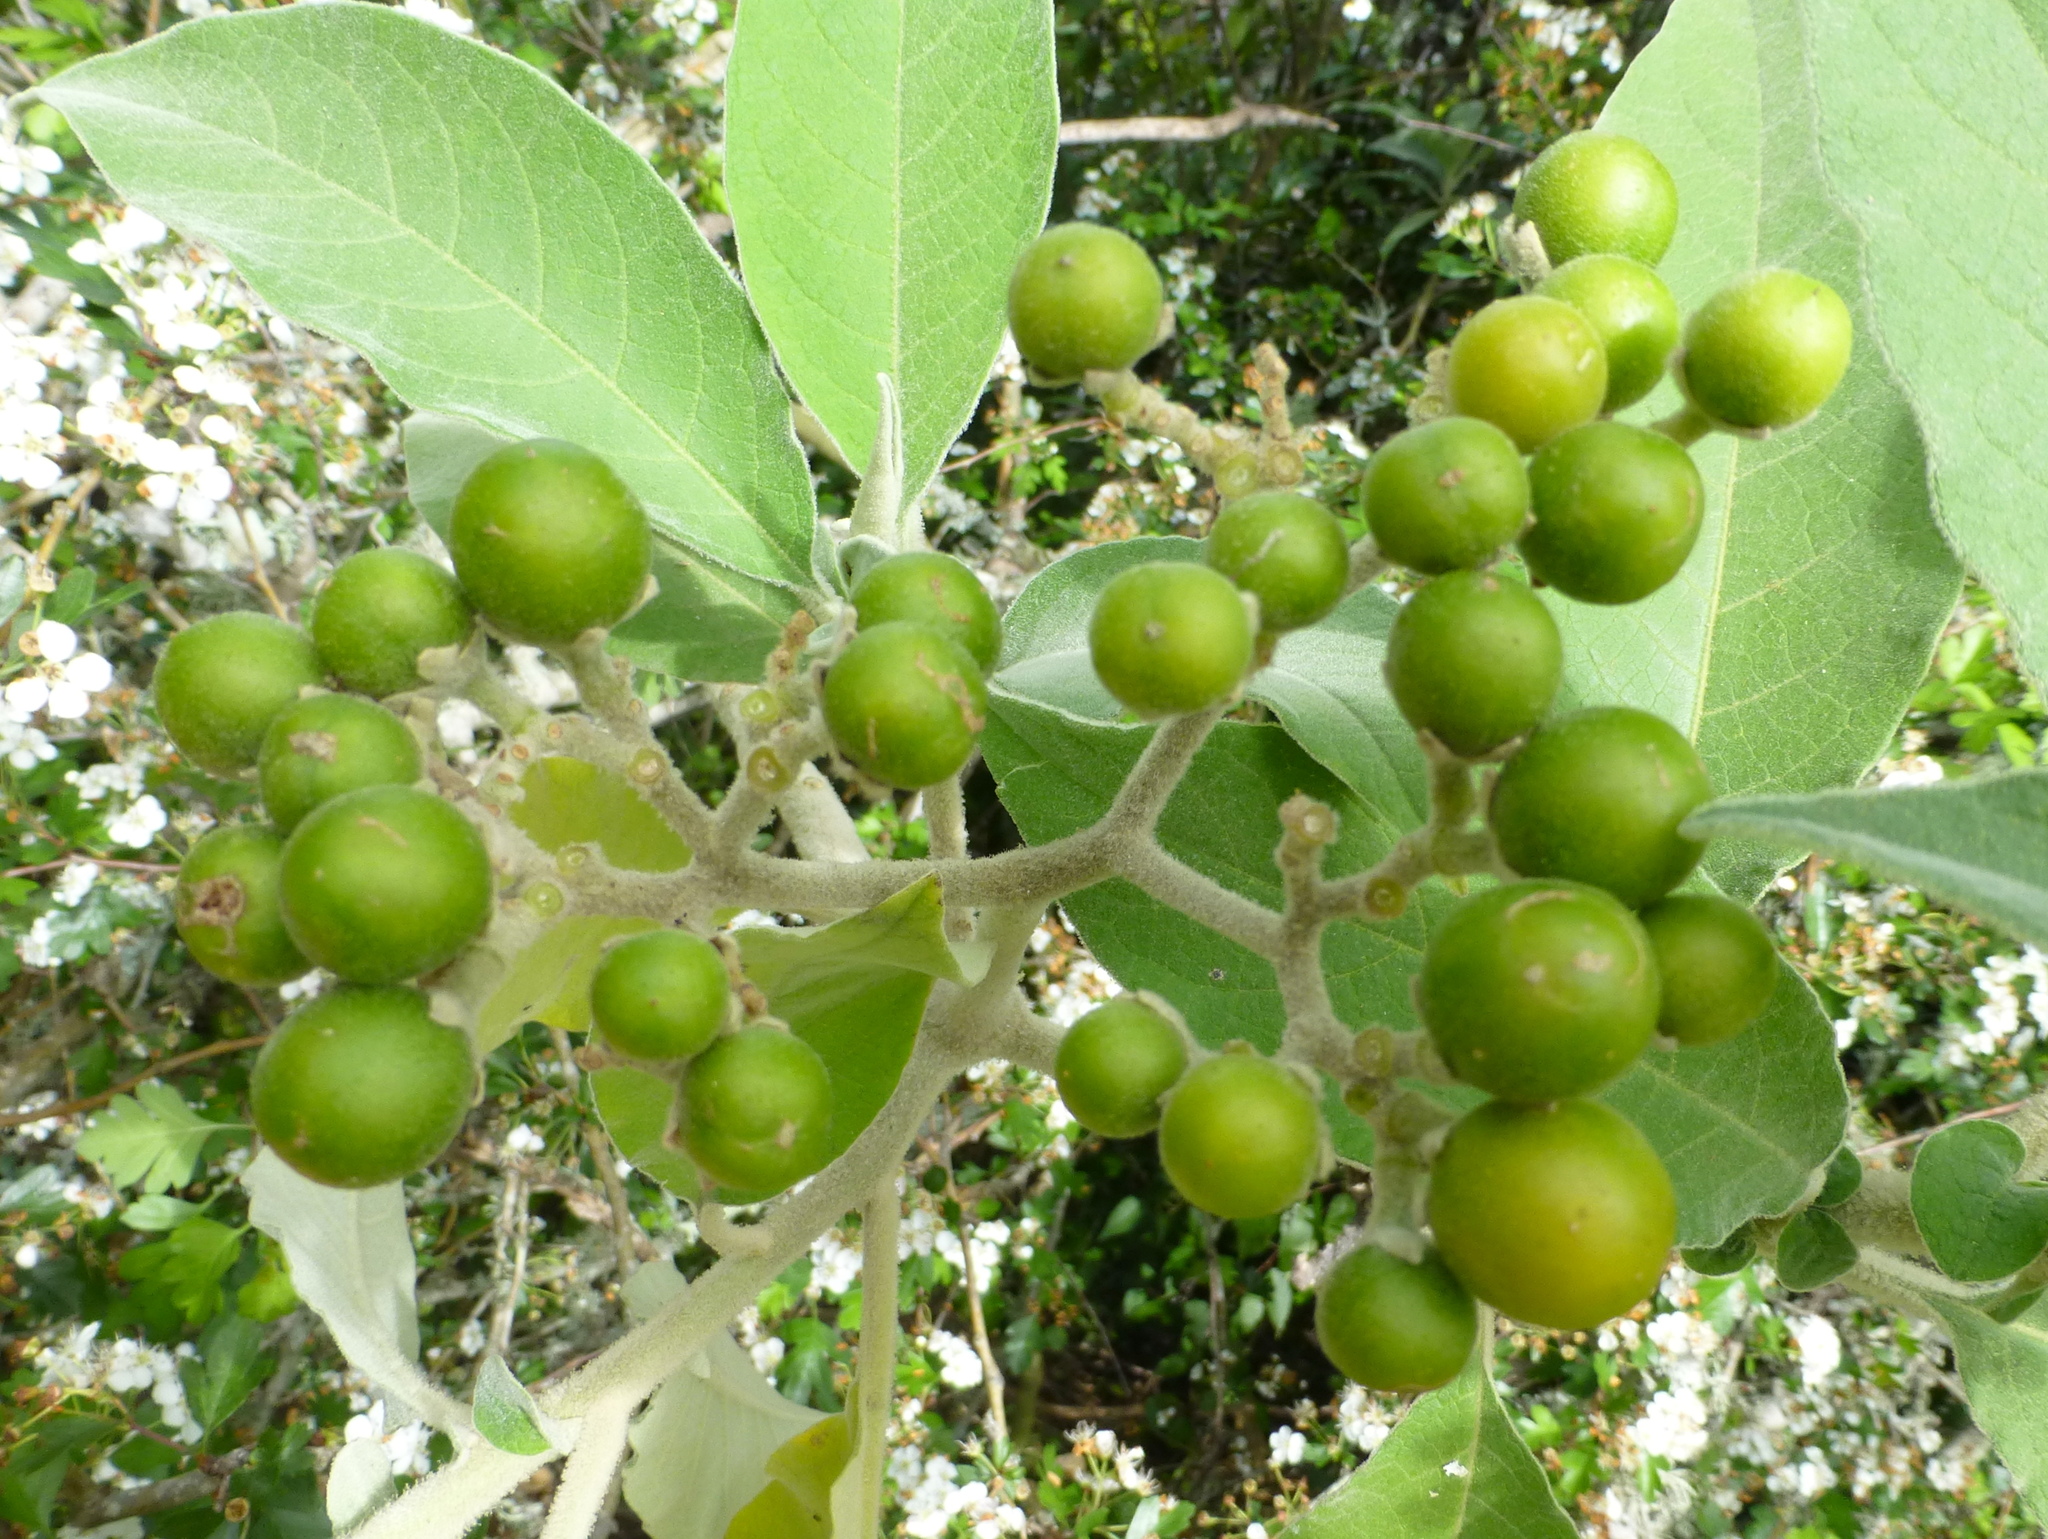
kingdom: Plantae
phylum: Tracheophyta
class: Magnoliopsida
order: Solanales
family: Solanaceae
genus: Solanum
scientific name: Solanum mauritianum
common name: Earleaf nightshade
